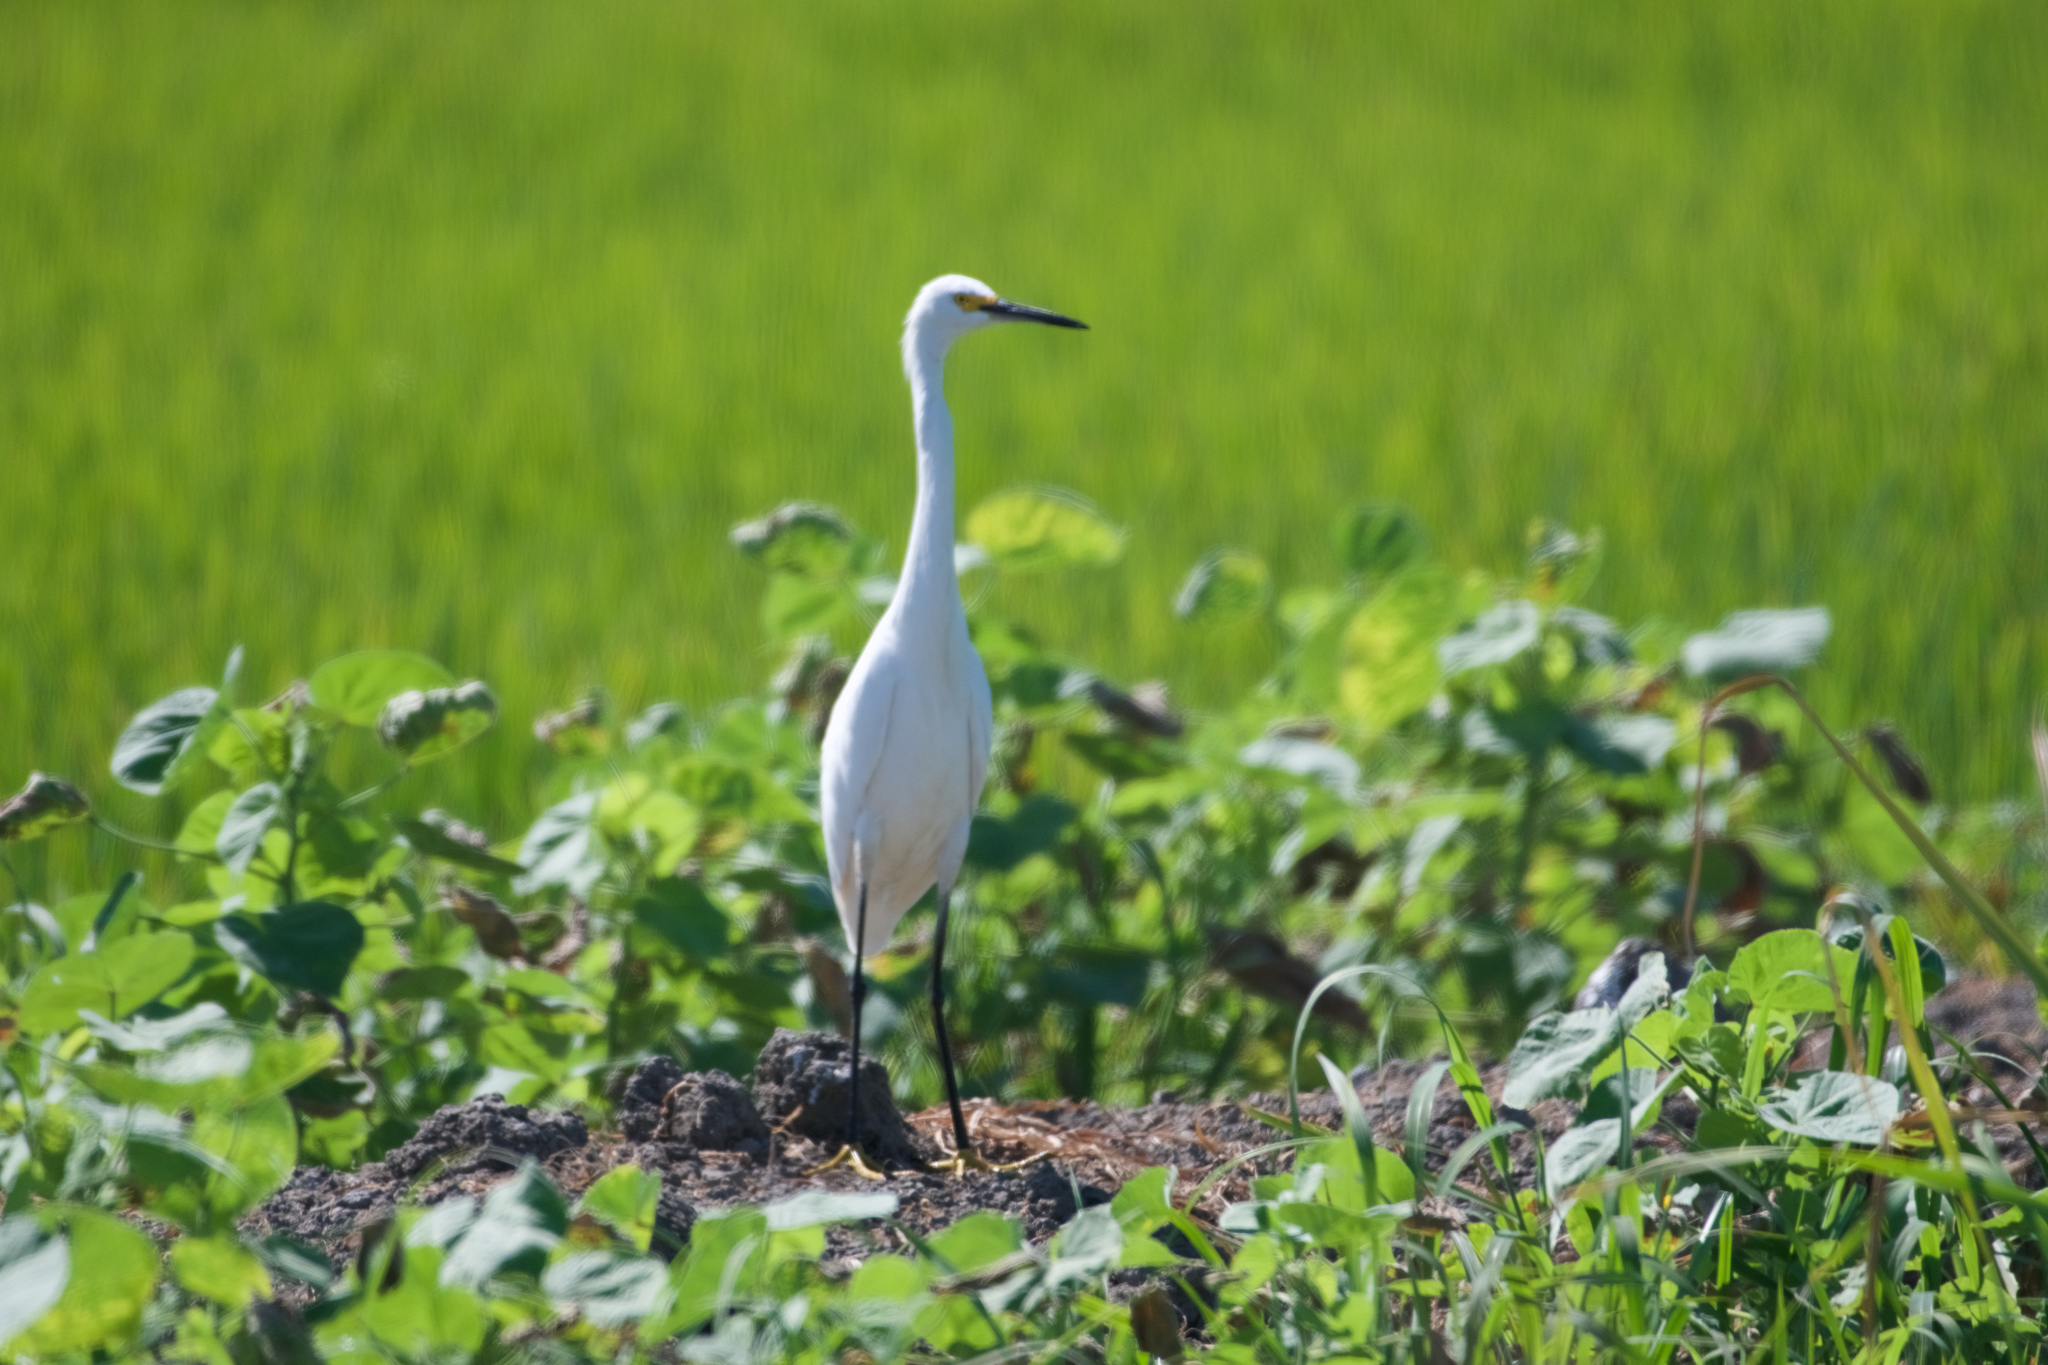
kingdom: Animalia
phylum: Chordata
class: Aves
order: Pelecaniformes
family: Ardeidae
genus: Egretta
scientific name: Egretta thula
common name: Snowy egret
